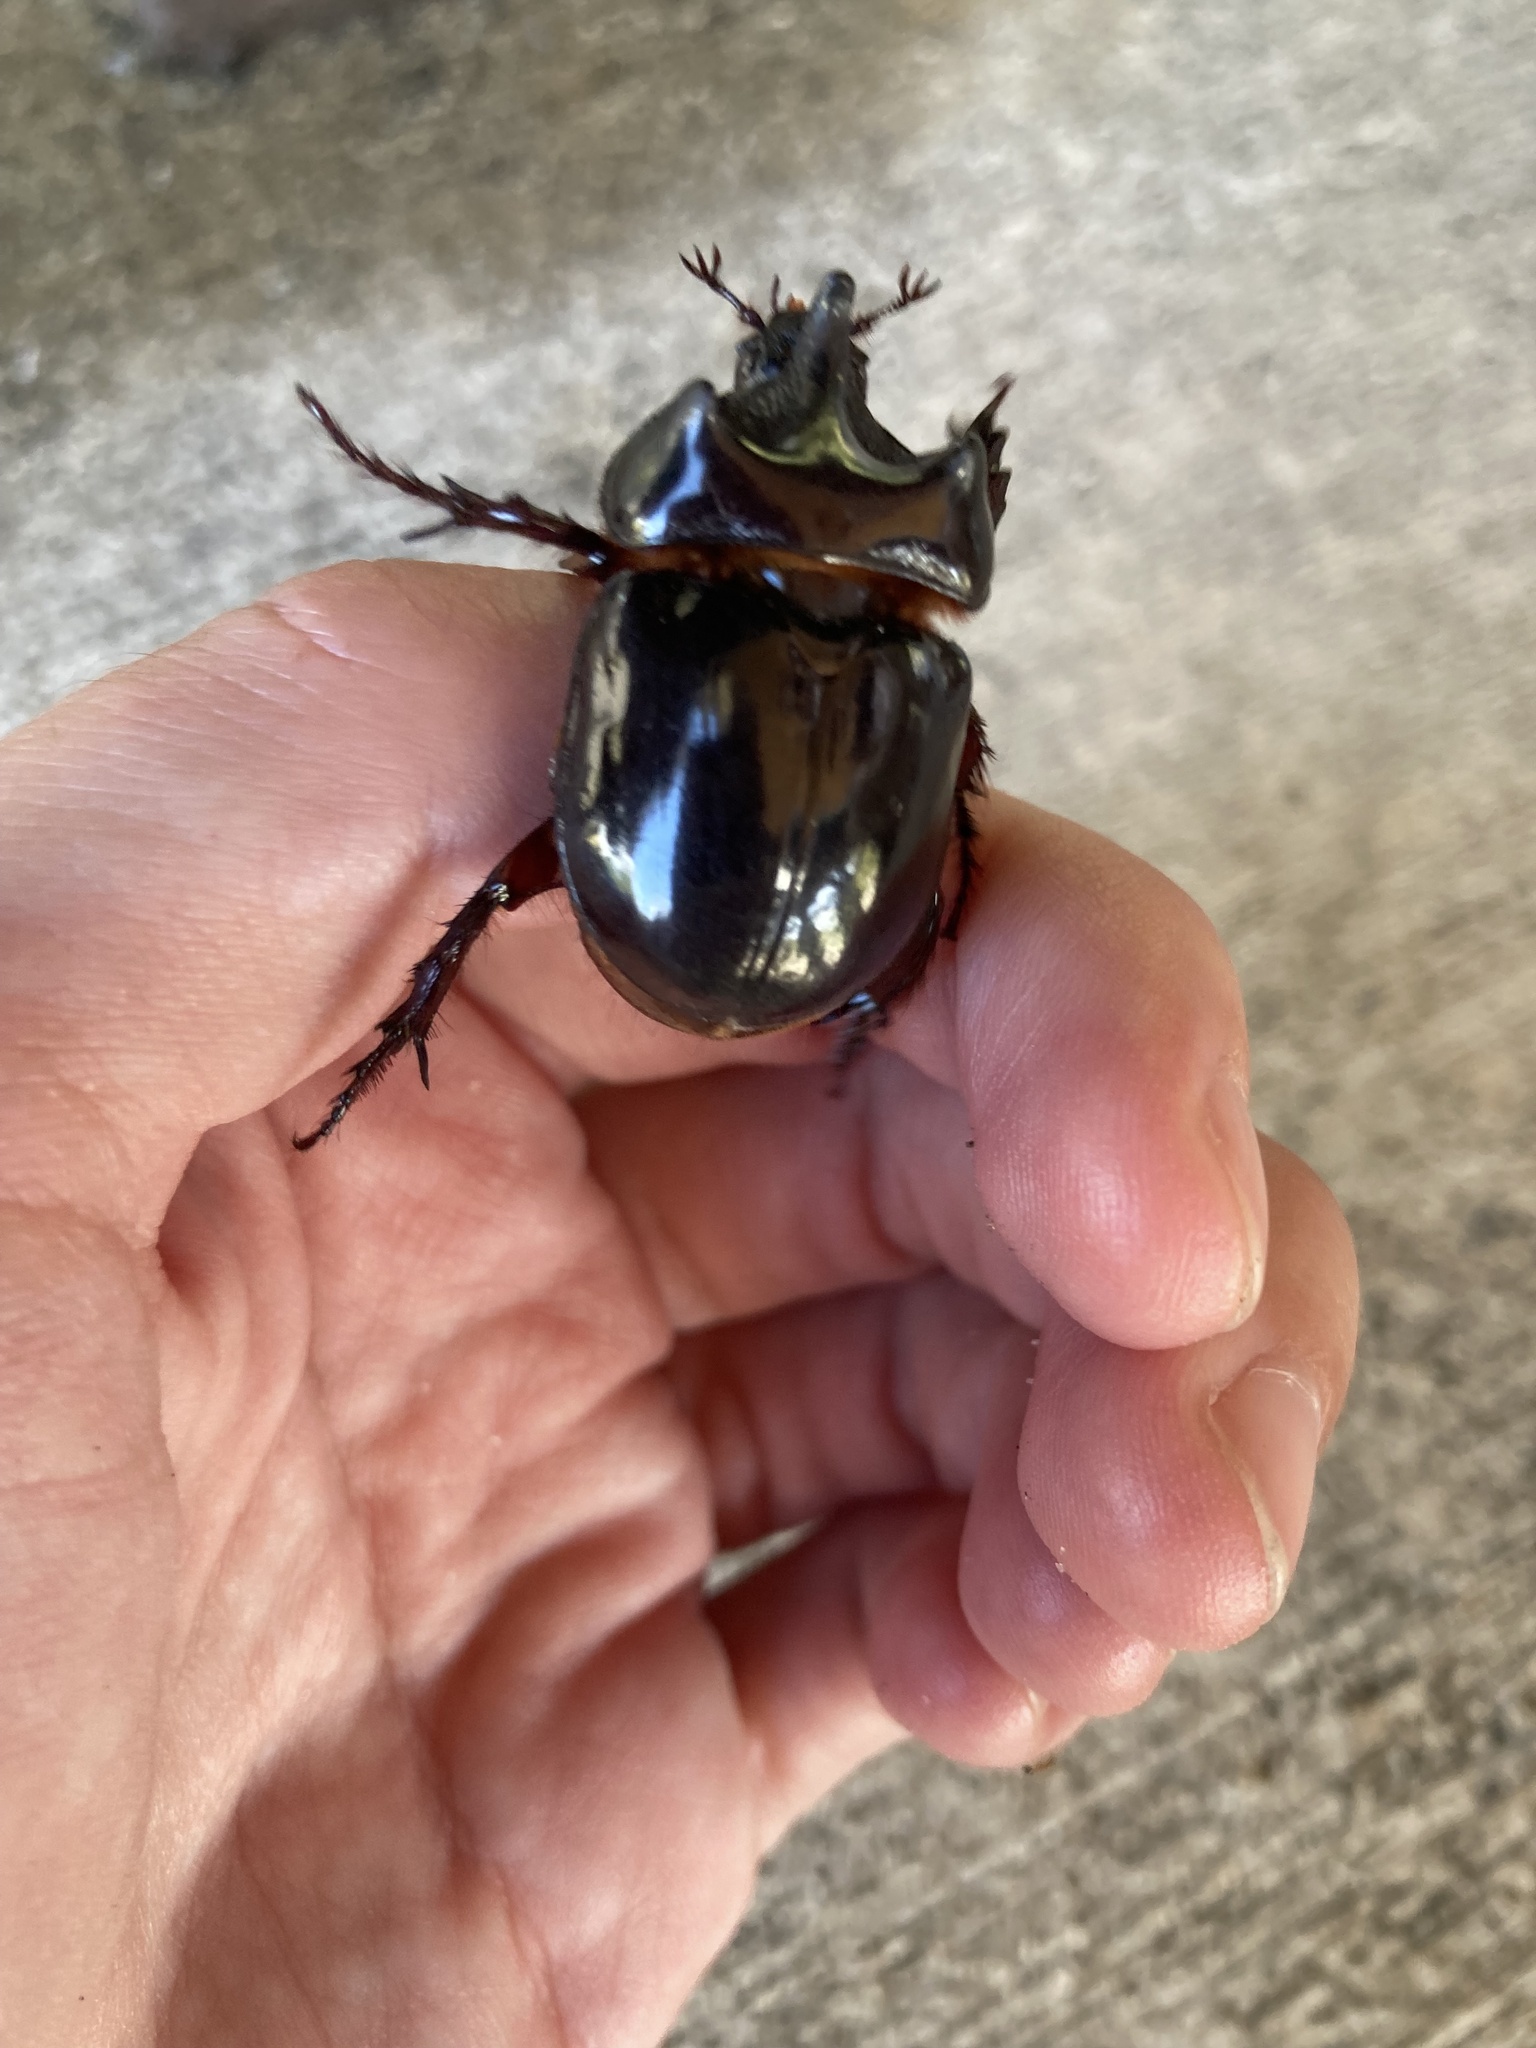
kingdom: Animalia
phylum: Arthropoda
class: Insecta
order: Coleoptera
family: Scarabaeidae
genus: Strategus
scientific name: Strategus antaeus
